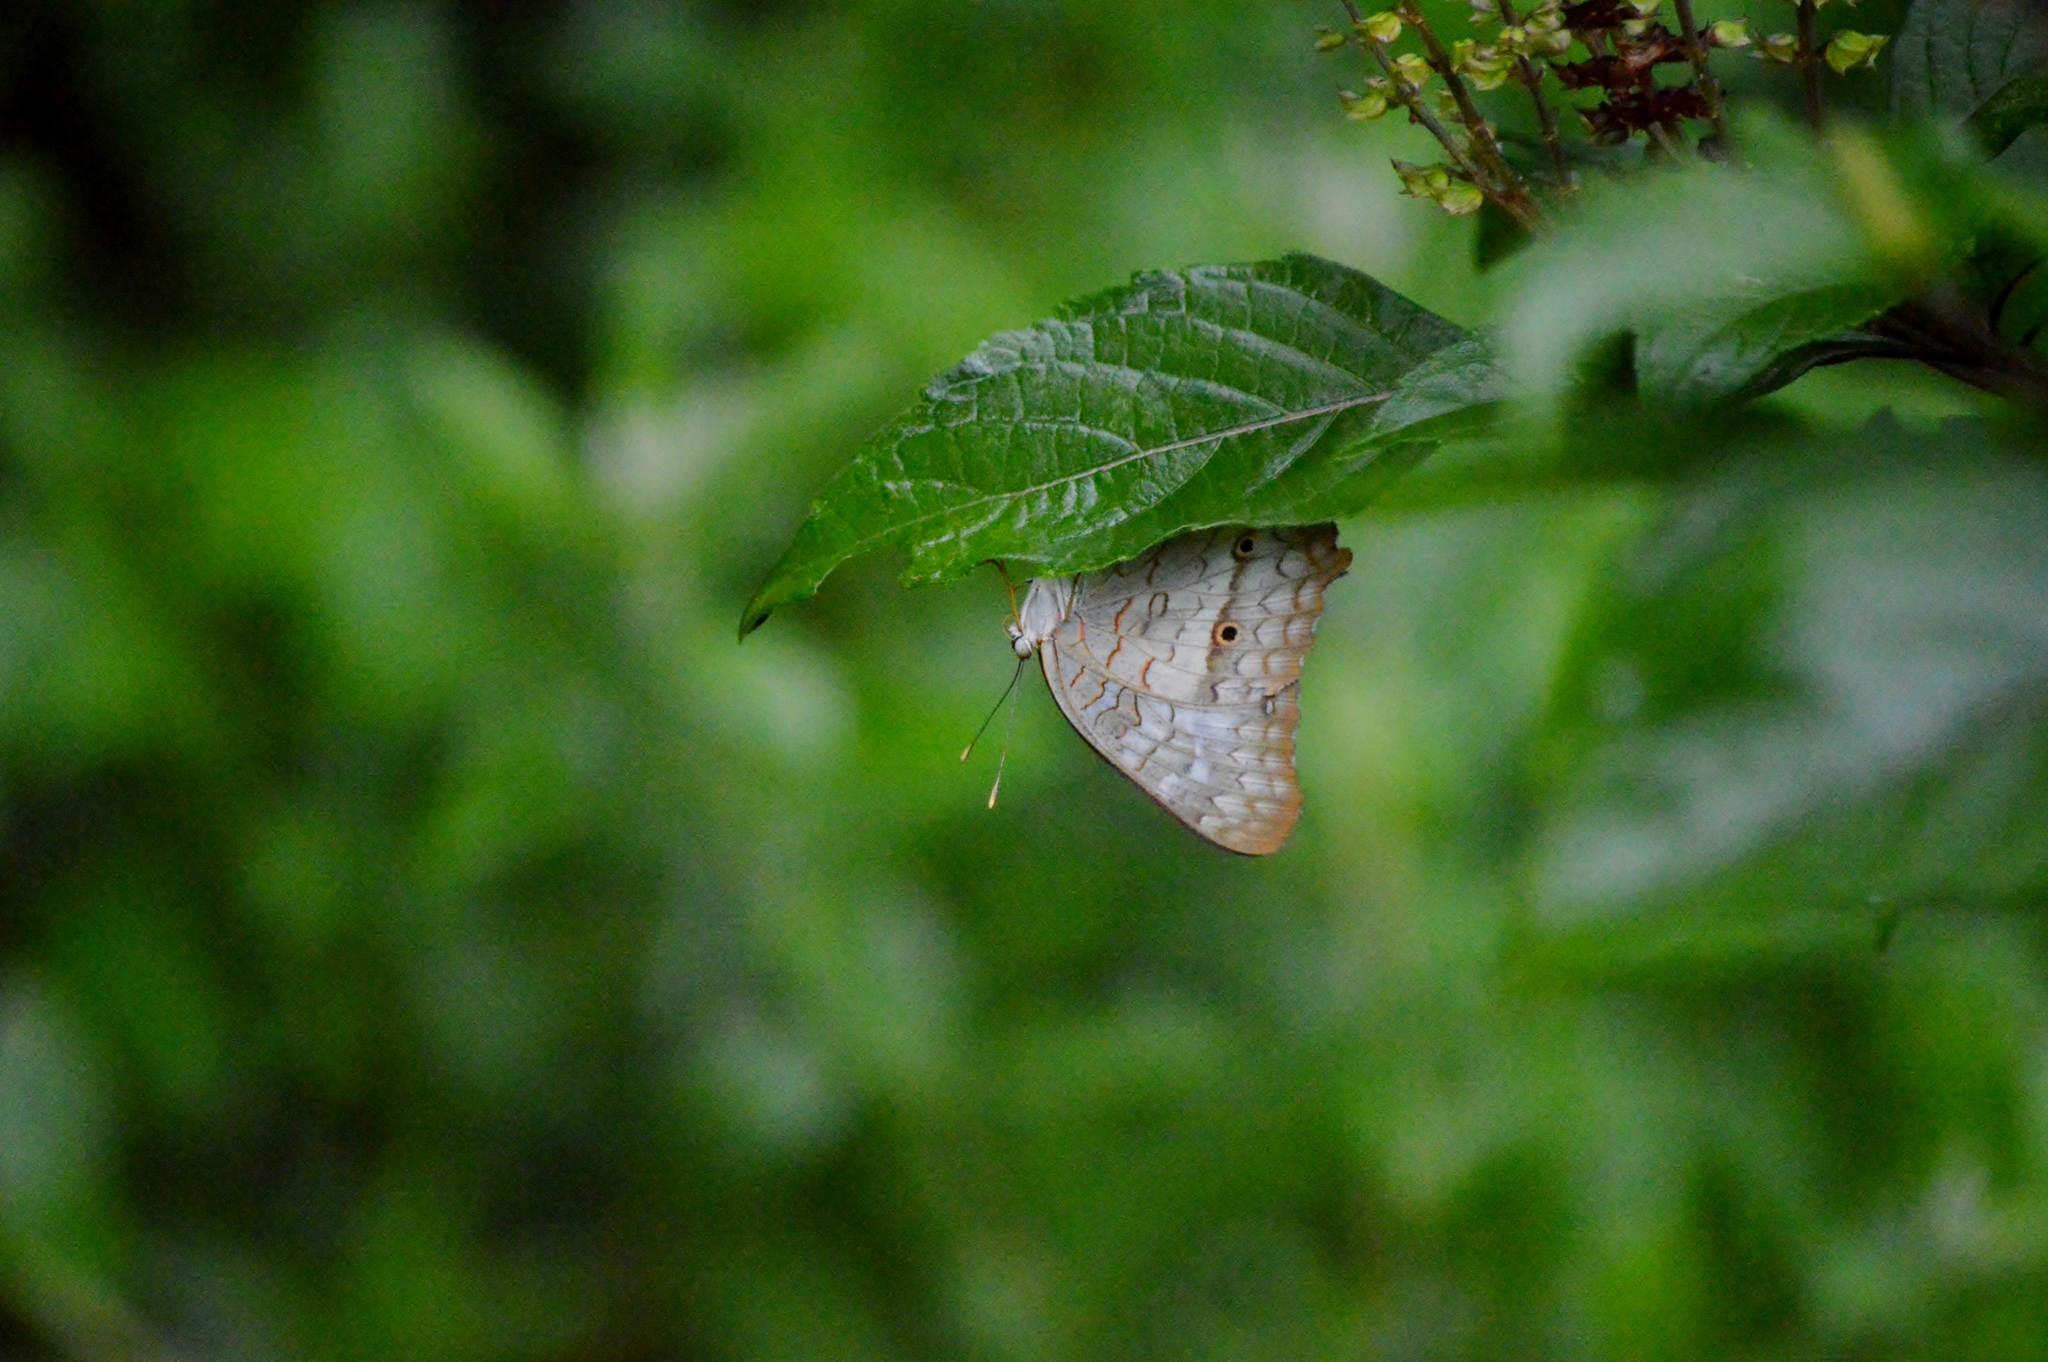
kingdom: Animalia
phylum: Arthropoda
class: Insecta
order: Lepidoptera
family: Nymphalidae
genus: Anartia
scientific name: Anartia jatrophae
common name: White peacock
